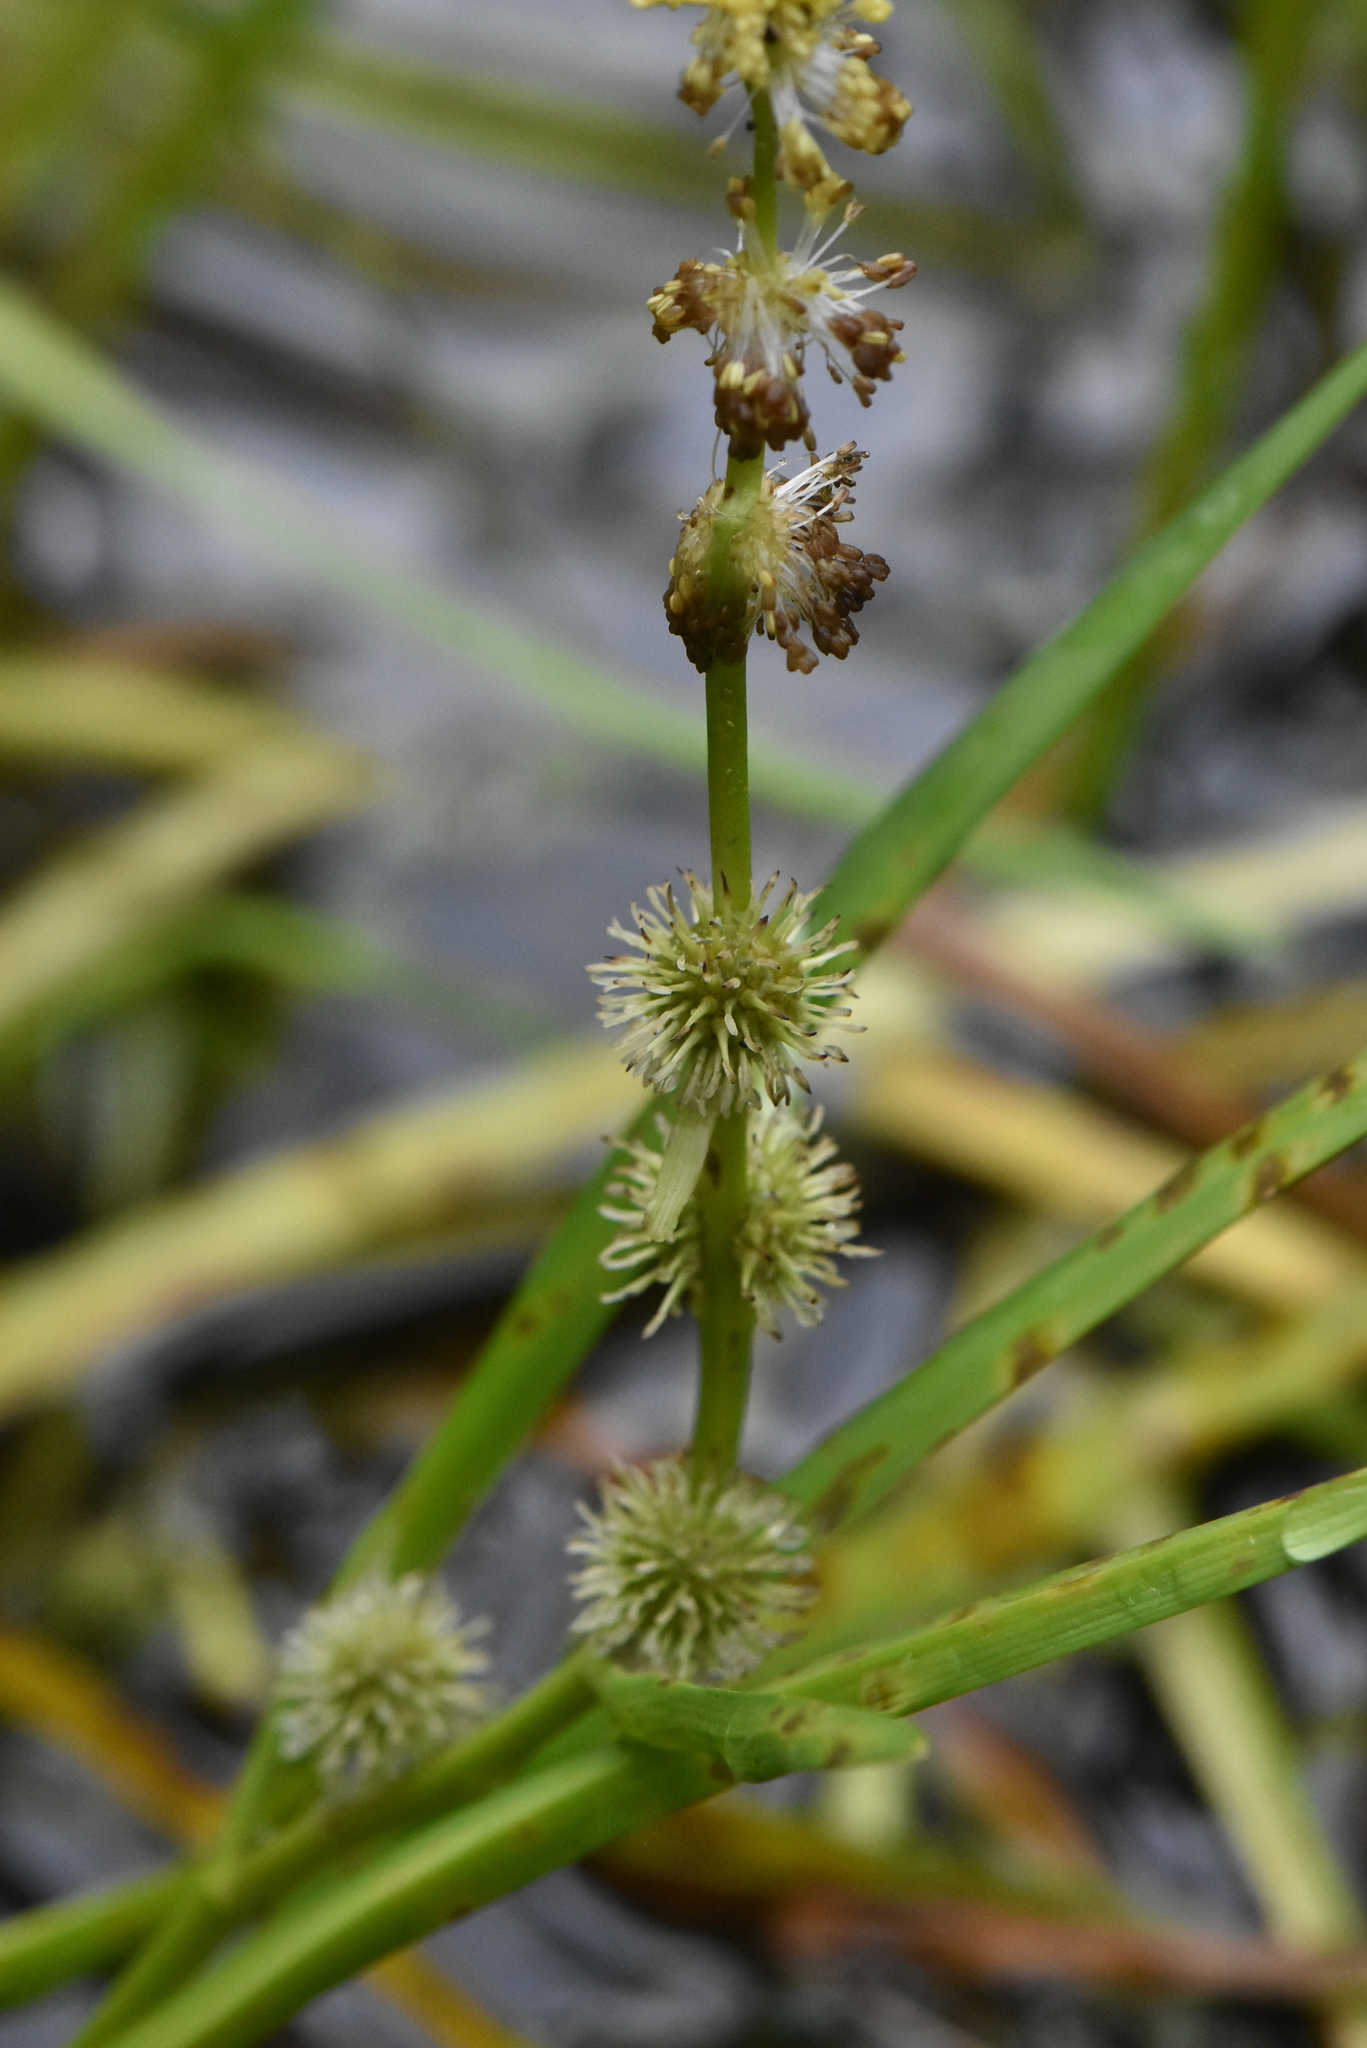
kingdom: Plantae
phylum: Tracheophyta
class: Liliopsida
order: Poales
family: Typhaceae
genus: Sparganium
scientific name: Sparganium emersum
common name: Unbranched bur-reed
